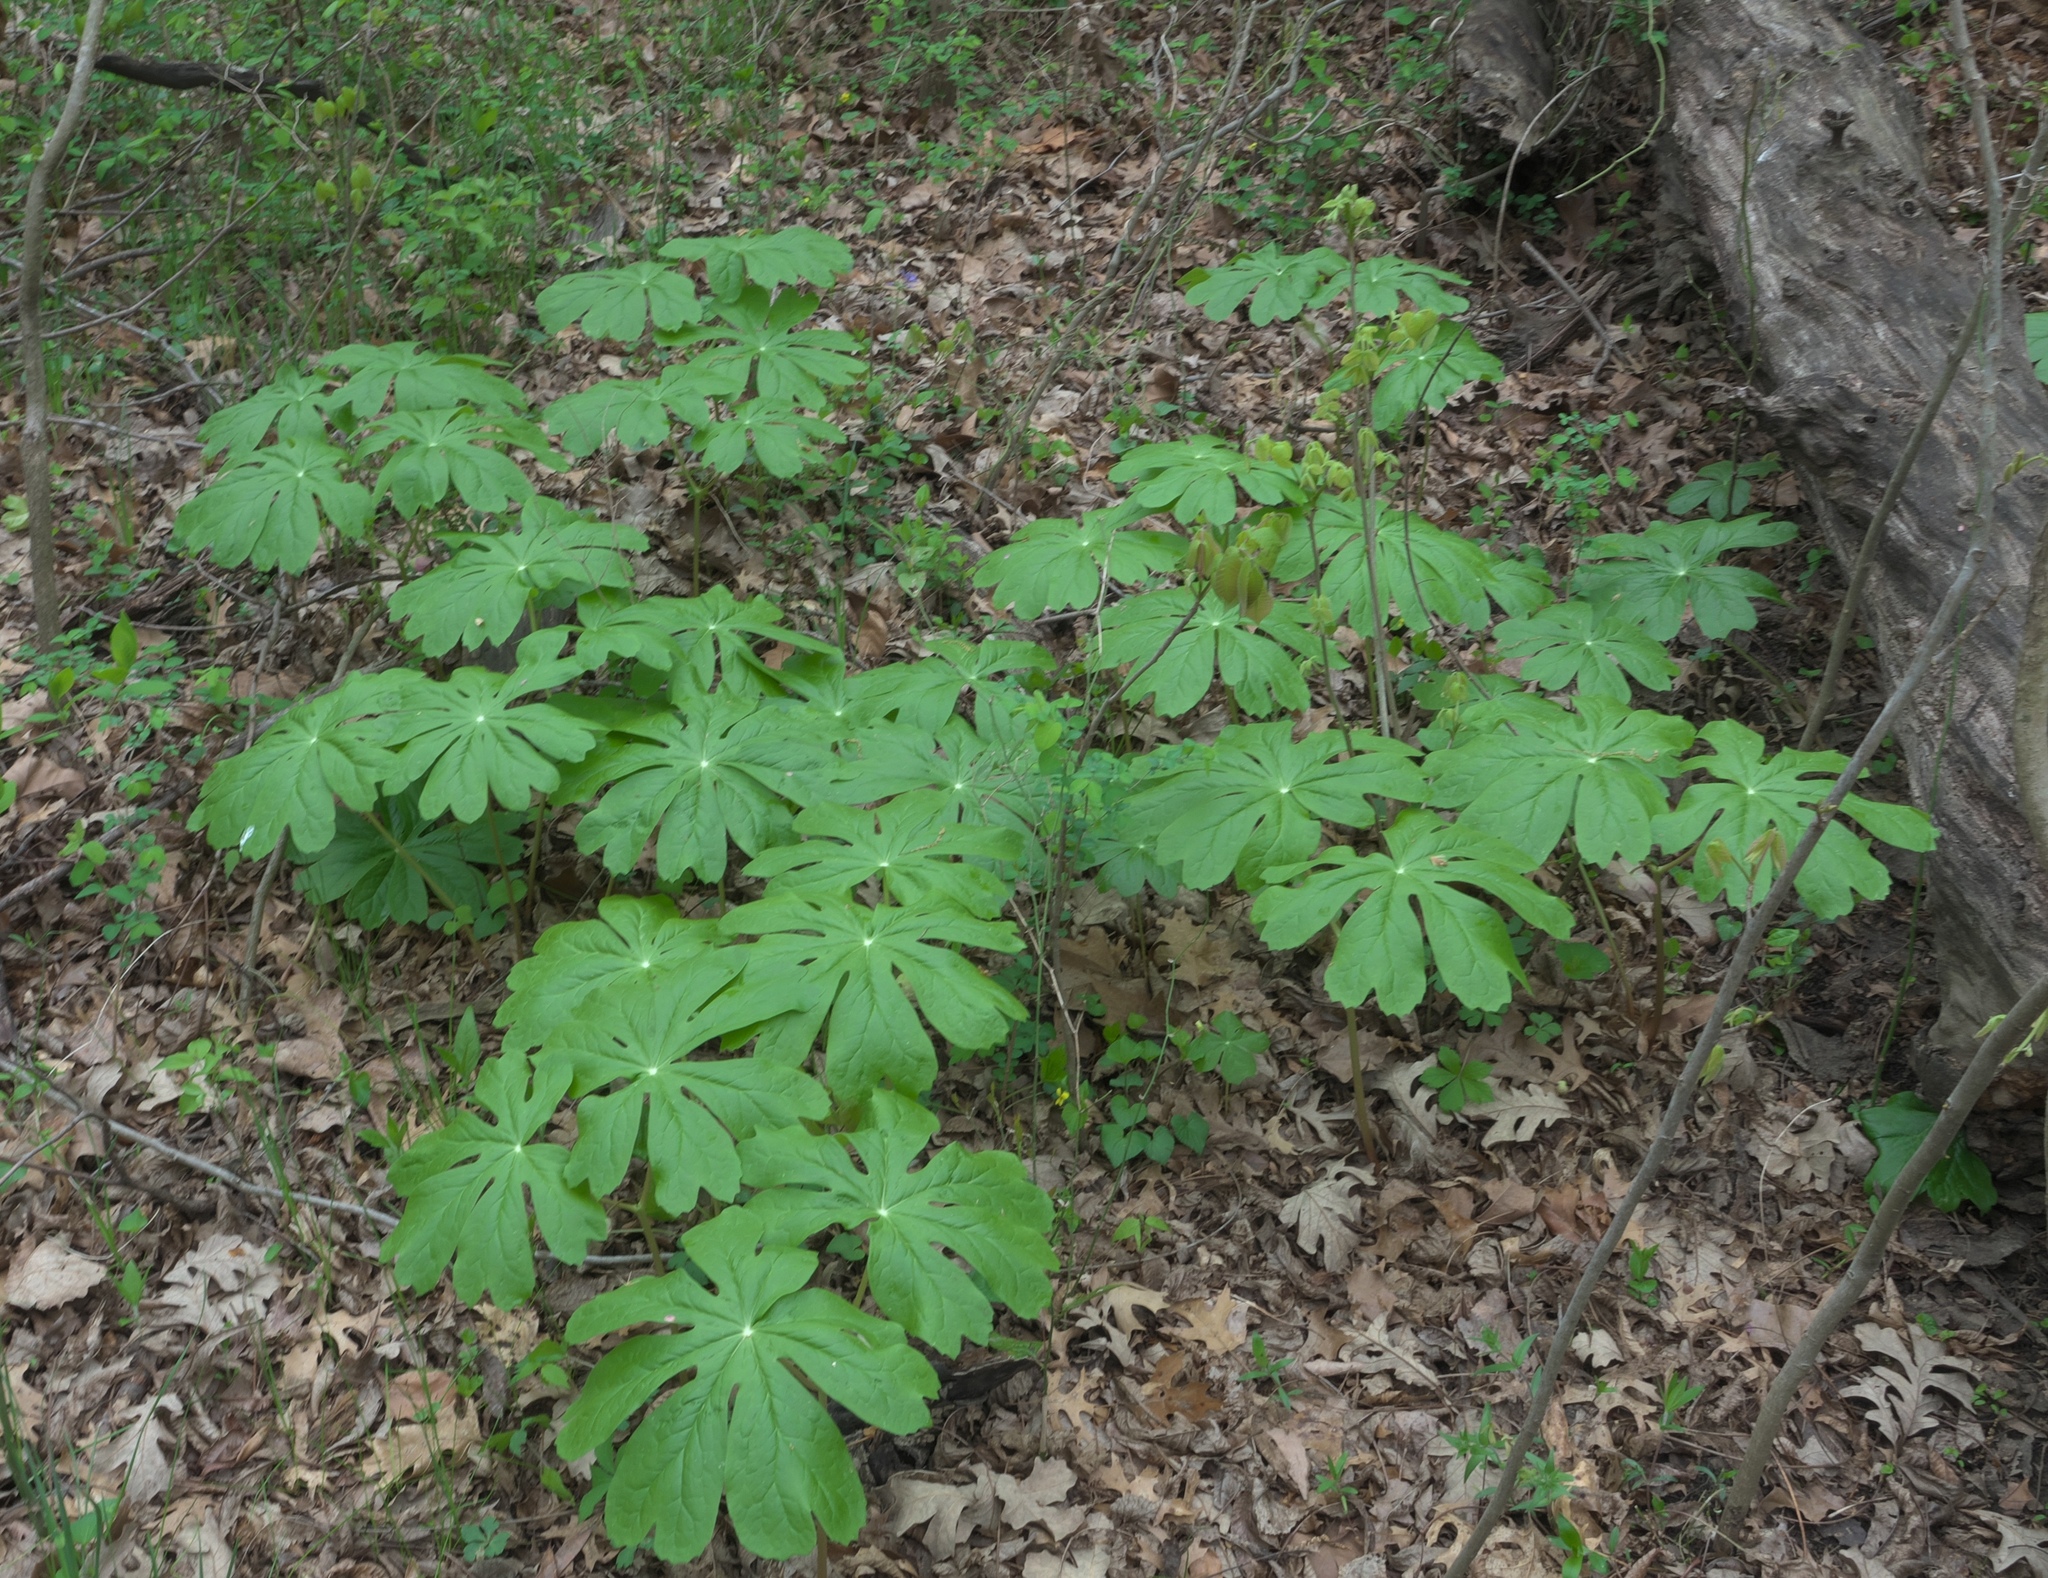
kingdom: Plantae
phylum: Tracheophyta
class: Magnoliopsida
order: Ranunculales
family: Berberidaceae
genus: Podophyllum
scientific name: Podophyllum peltatum
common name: Wild mandrake
